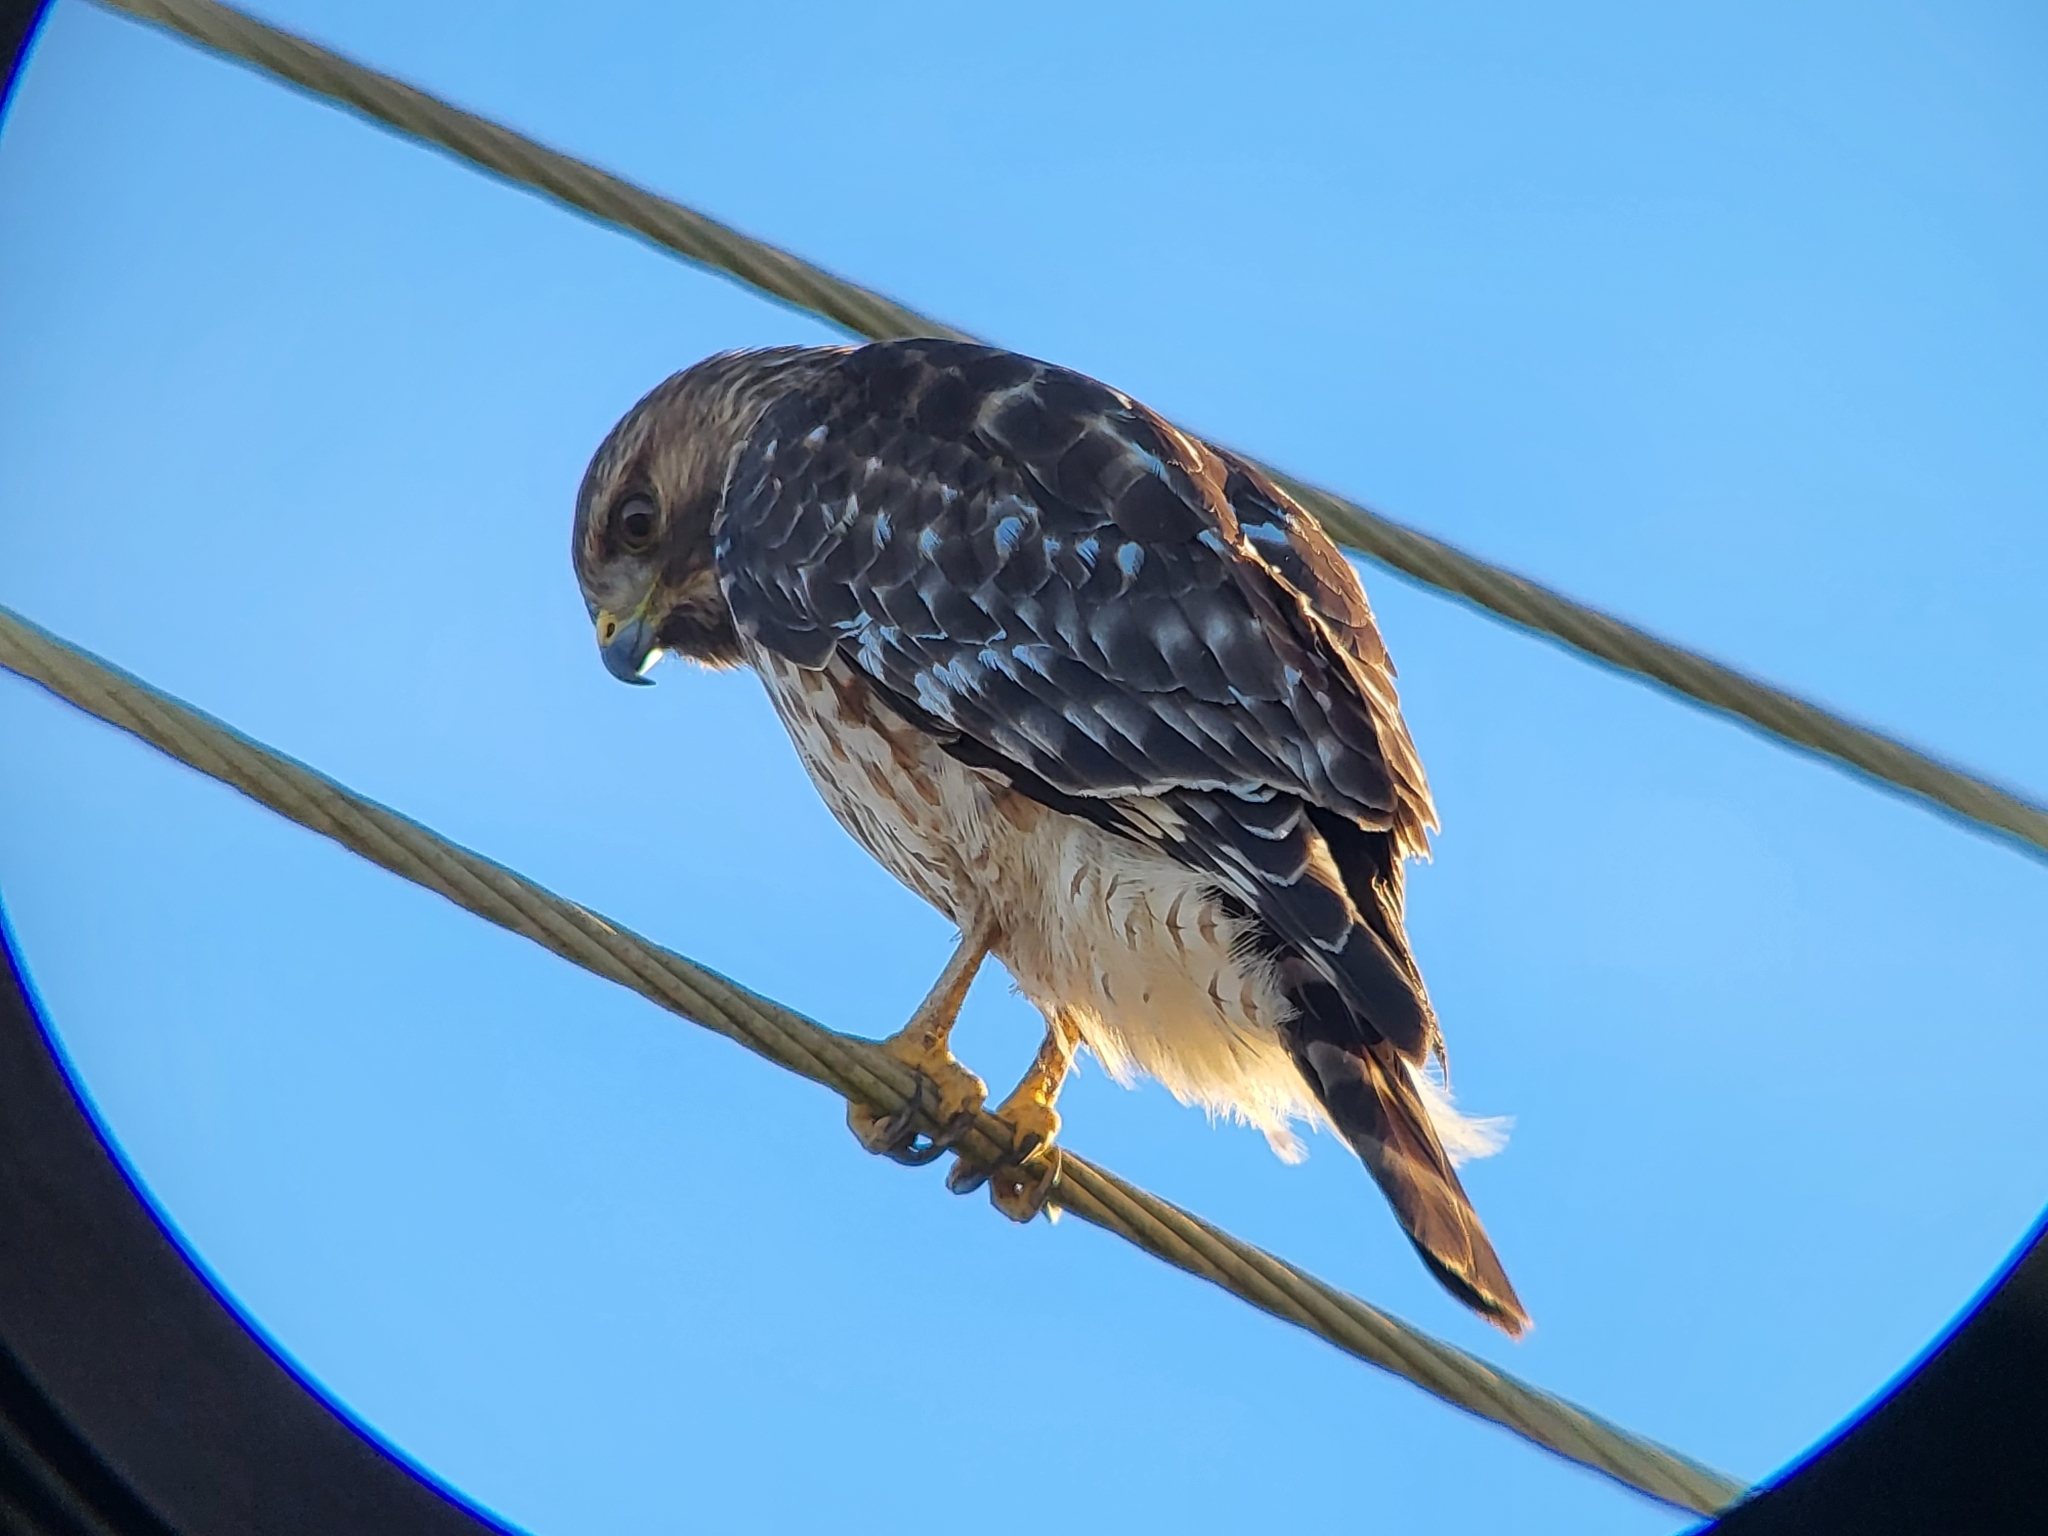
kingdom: Animalia
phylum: Chordata
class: Aves
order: Accipitriformes
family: Accipitridae
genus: Buteo
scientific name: Buteo lineatus
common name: Red-shouldered hawk
